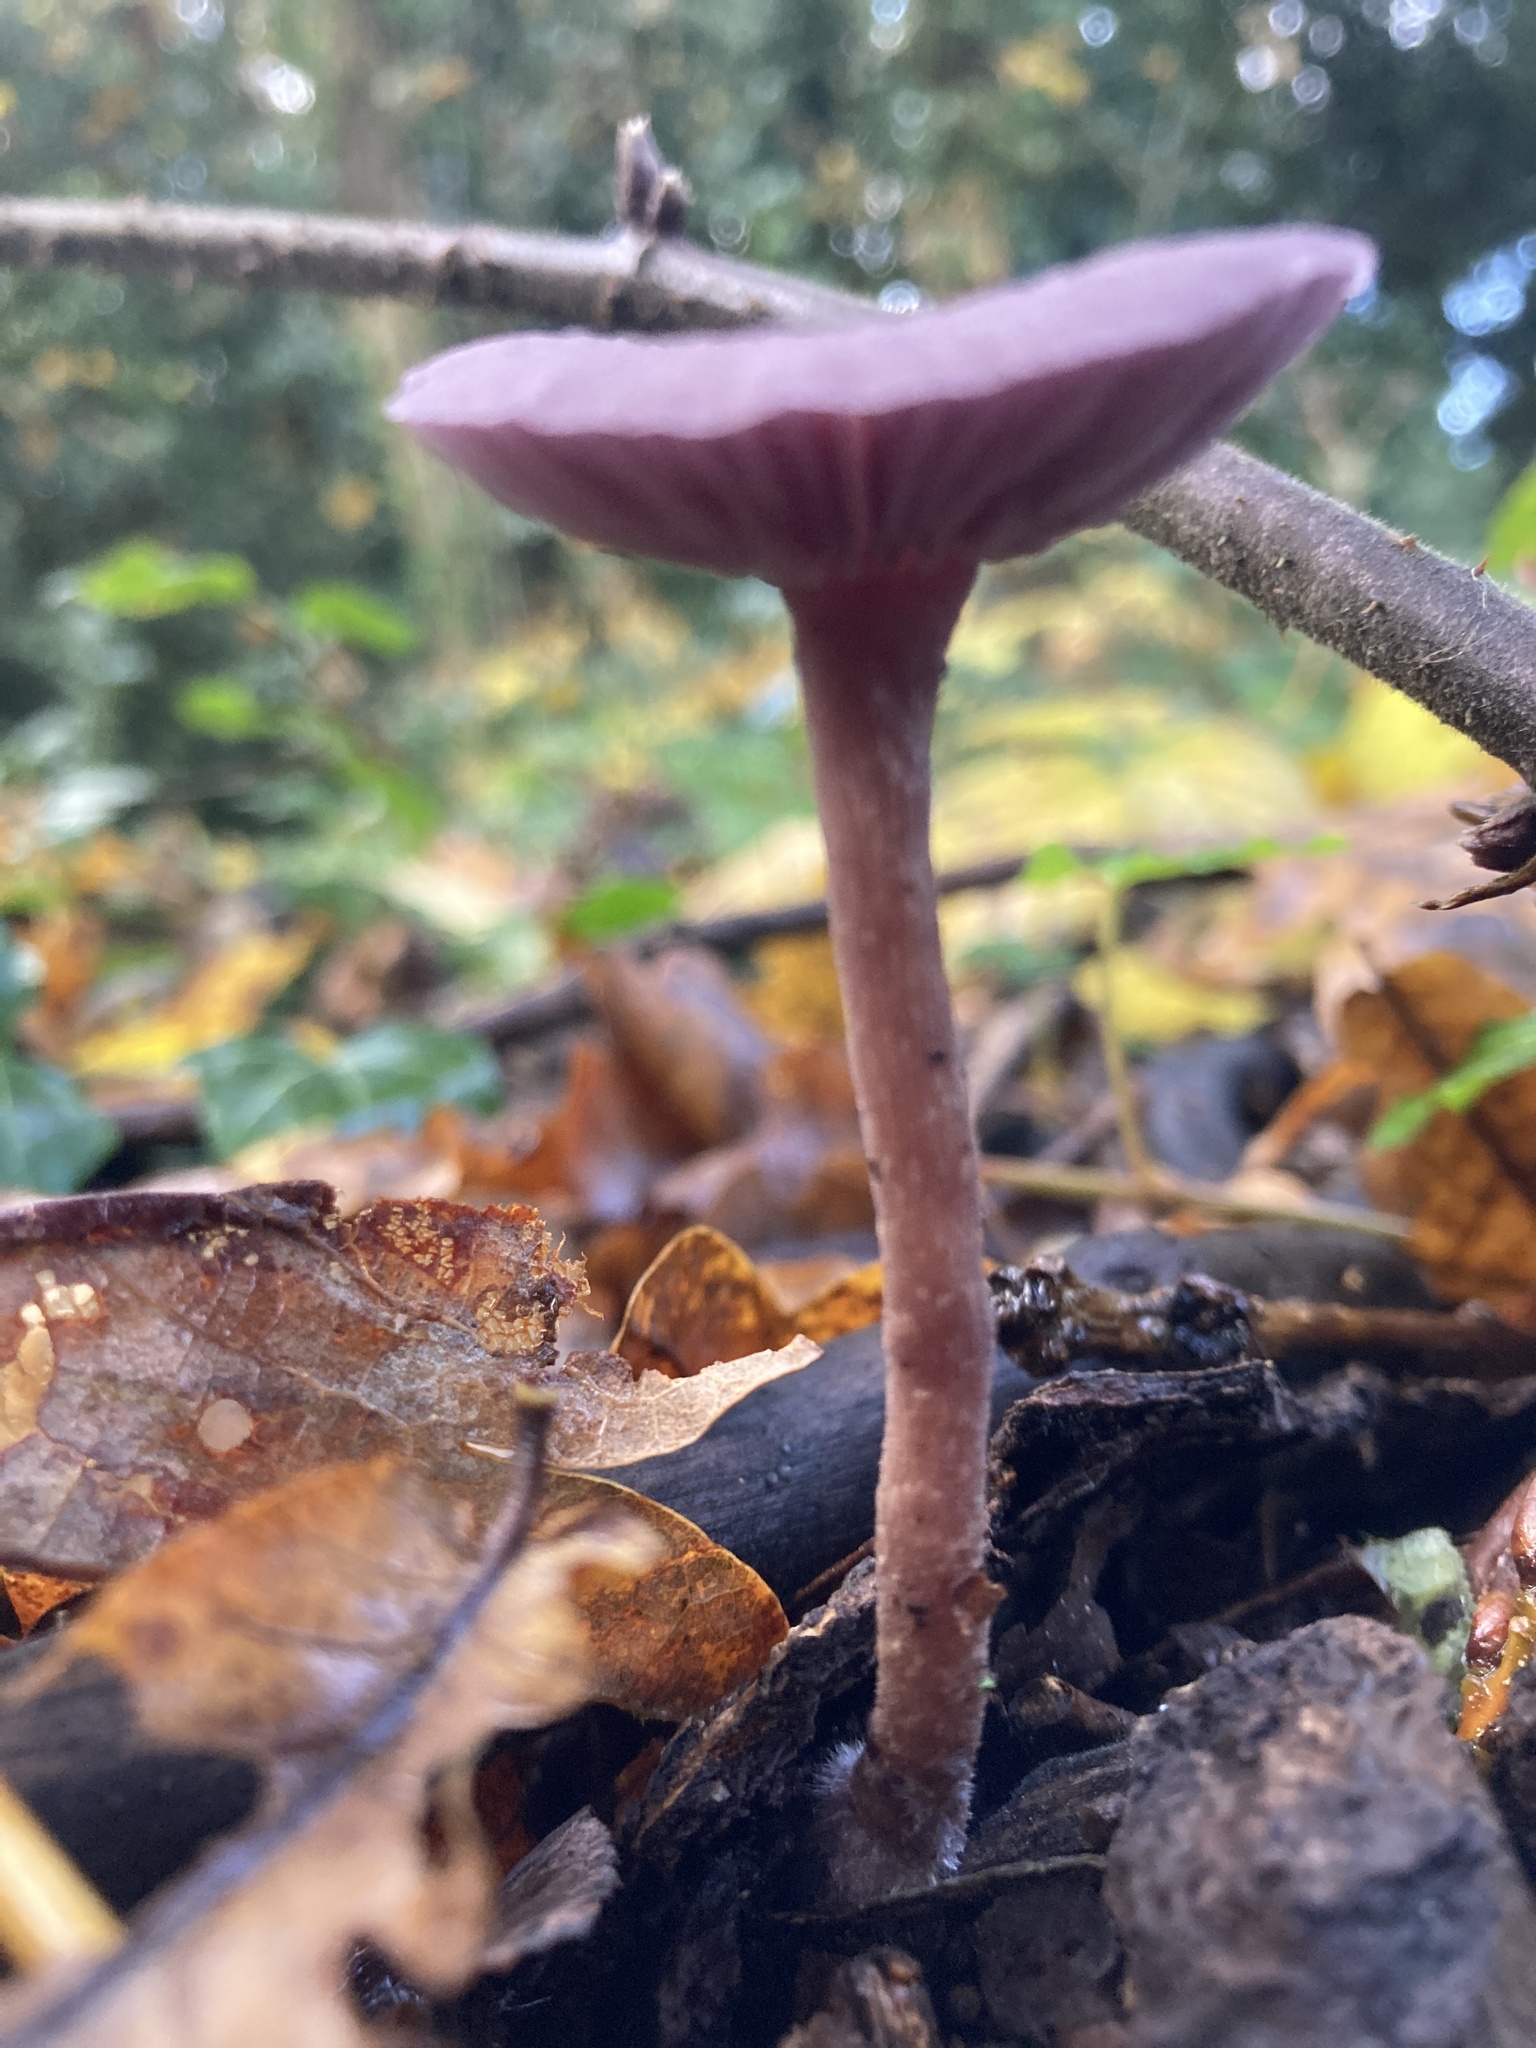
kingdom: Fungi
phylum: Basidiomycota
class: Agaricomycetes
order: Agaricales
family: Hydnangiaceae
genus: Laccaria
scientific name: Laccaria amethystina
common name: Amethyst deceiver
